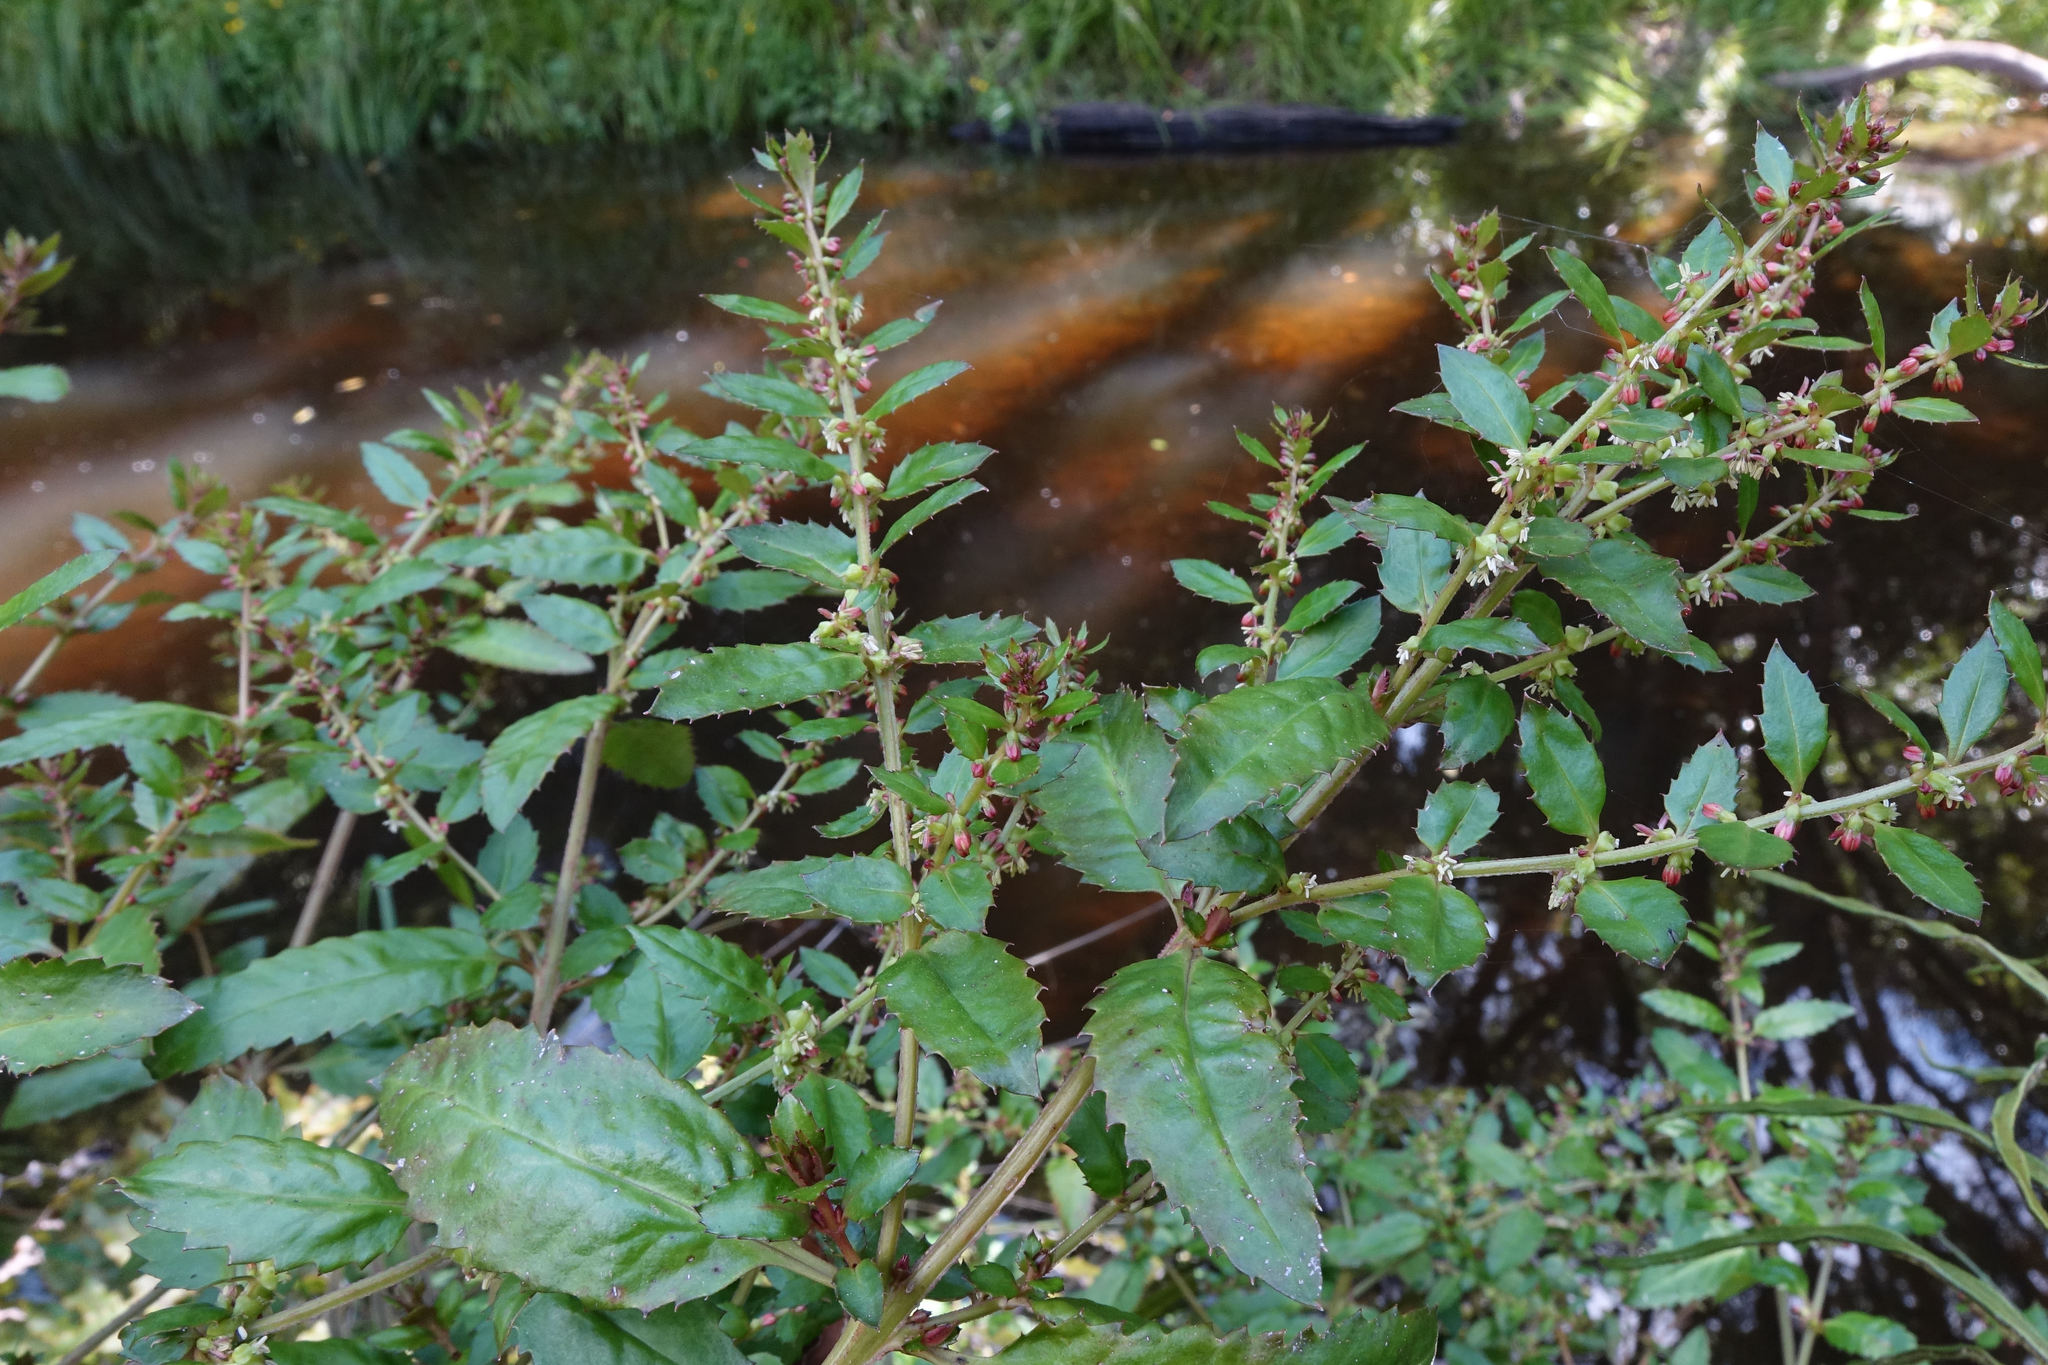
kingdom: Plantae
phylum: Tracheophyta
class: Magnoliopsida
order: Saxifragales
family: Haloragaceae
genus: Haloragis
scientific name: Haloragis erecta
